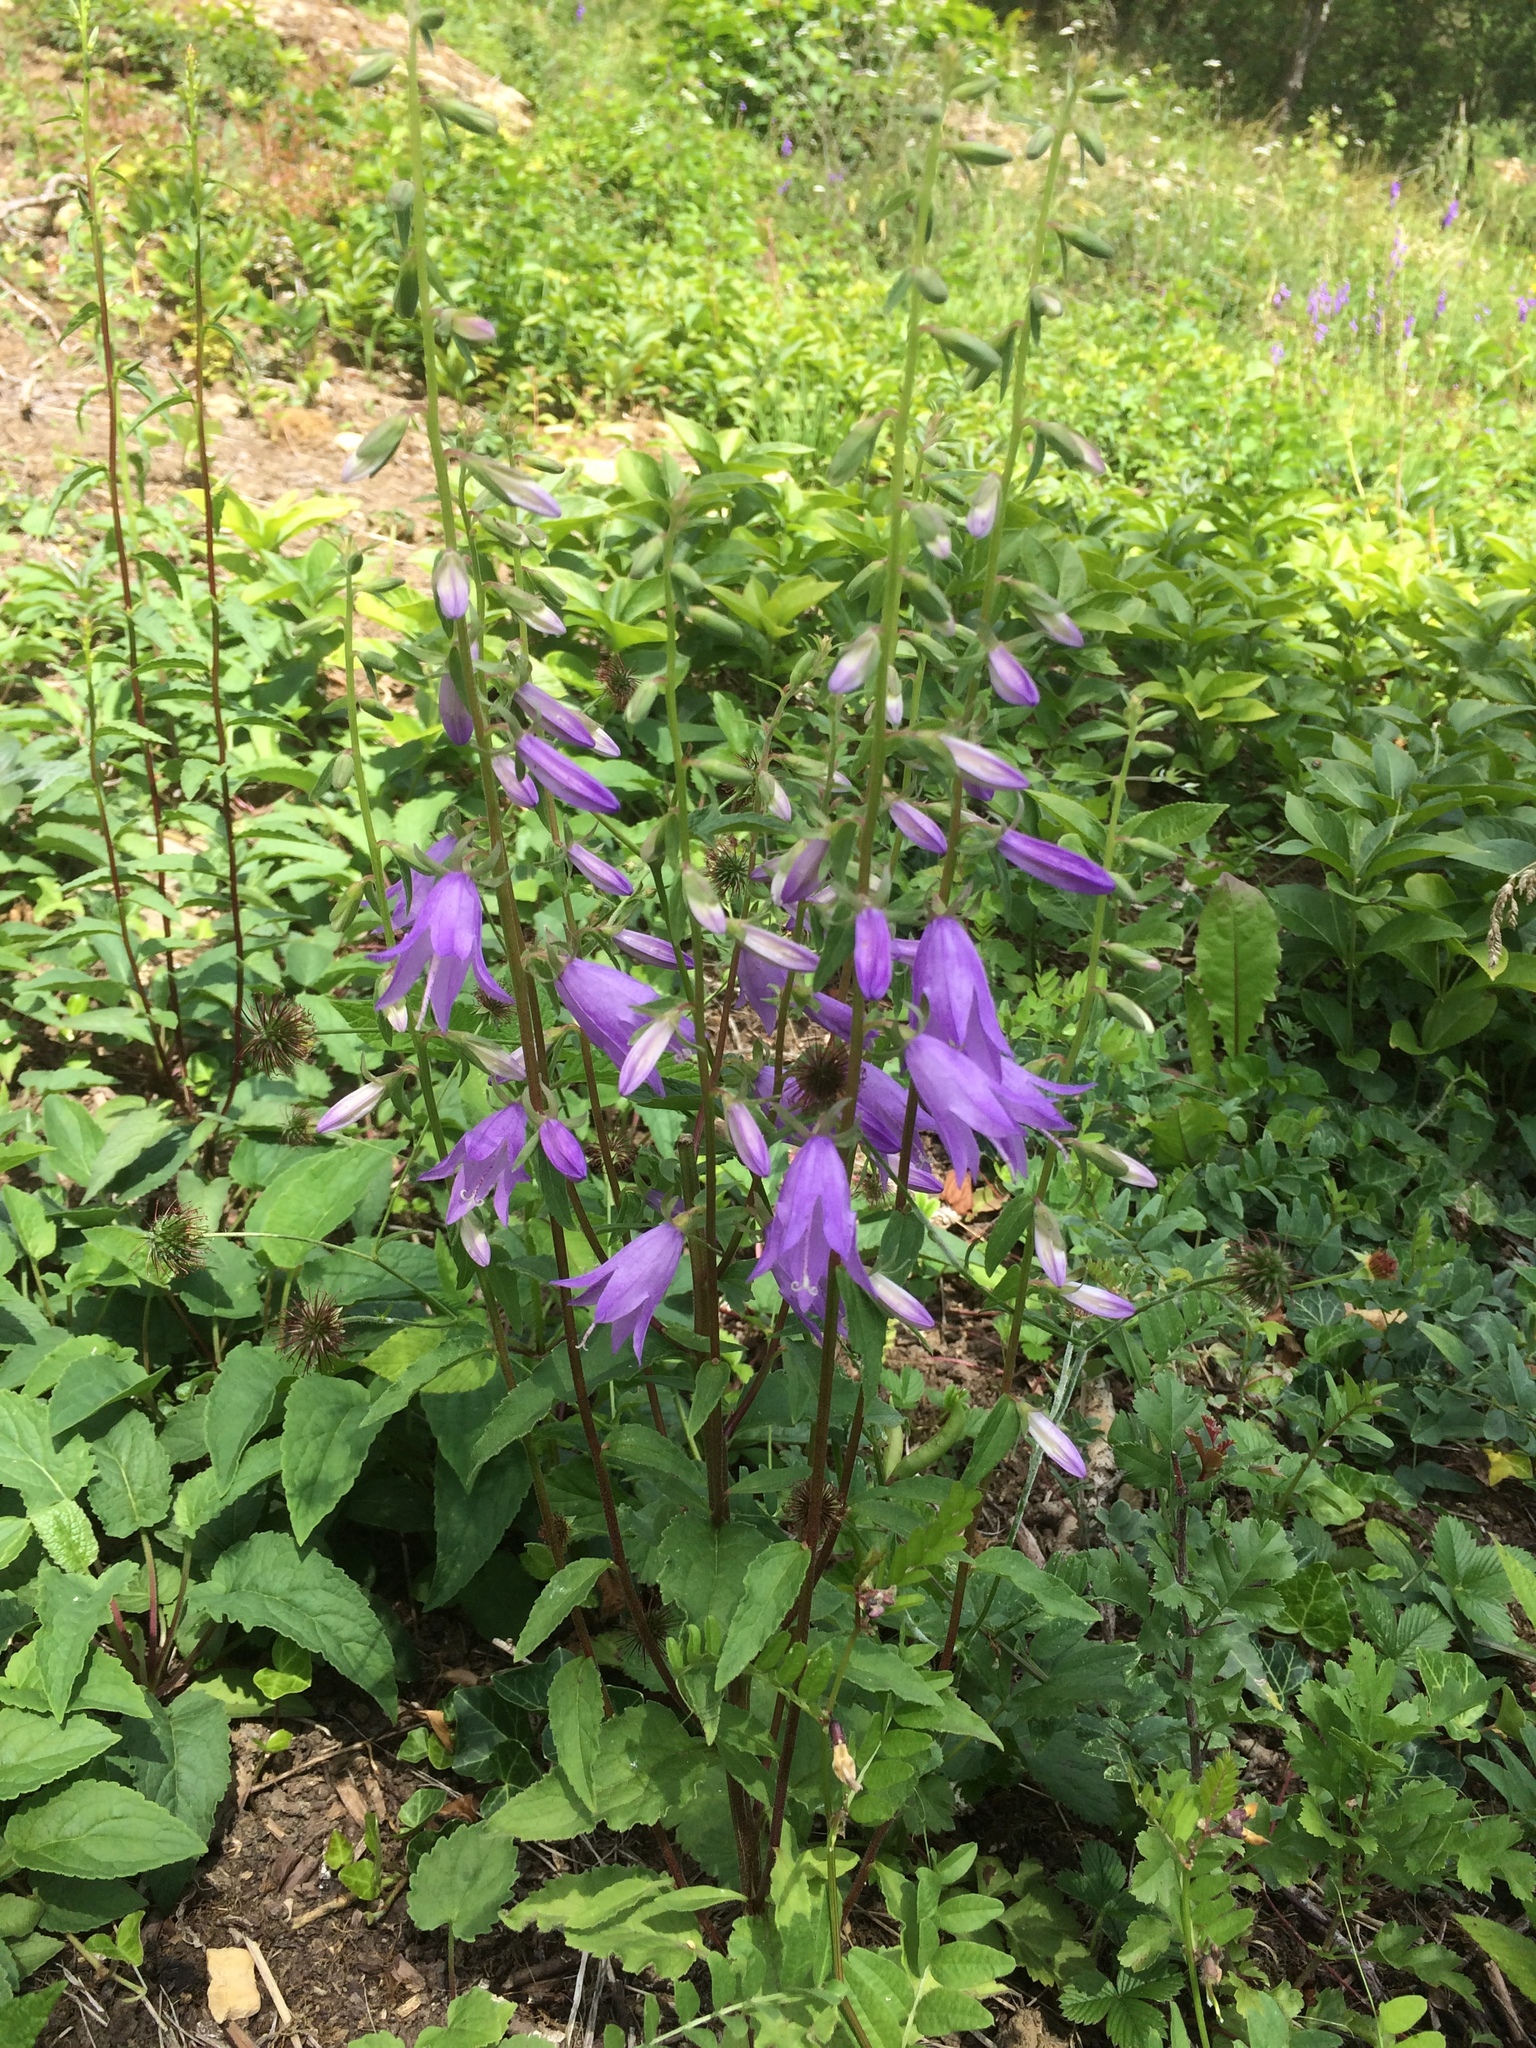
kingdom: Plantae
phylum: Tracheophyta
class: Magnoliopsida
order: Asterales
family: Campanulaceae
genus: Campanula
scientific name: Campanula rapunculoides
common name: Creeping bellflower
